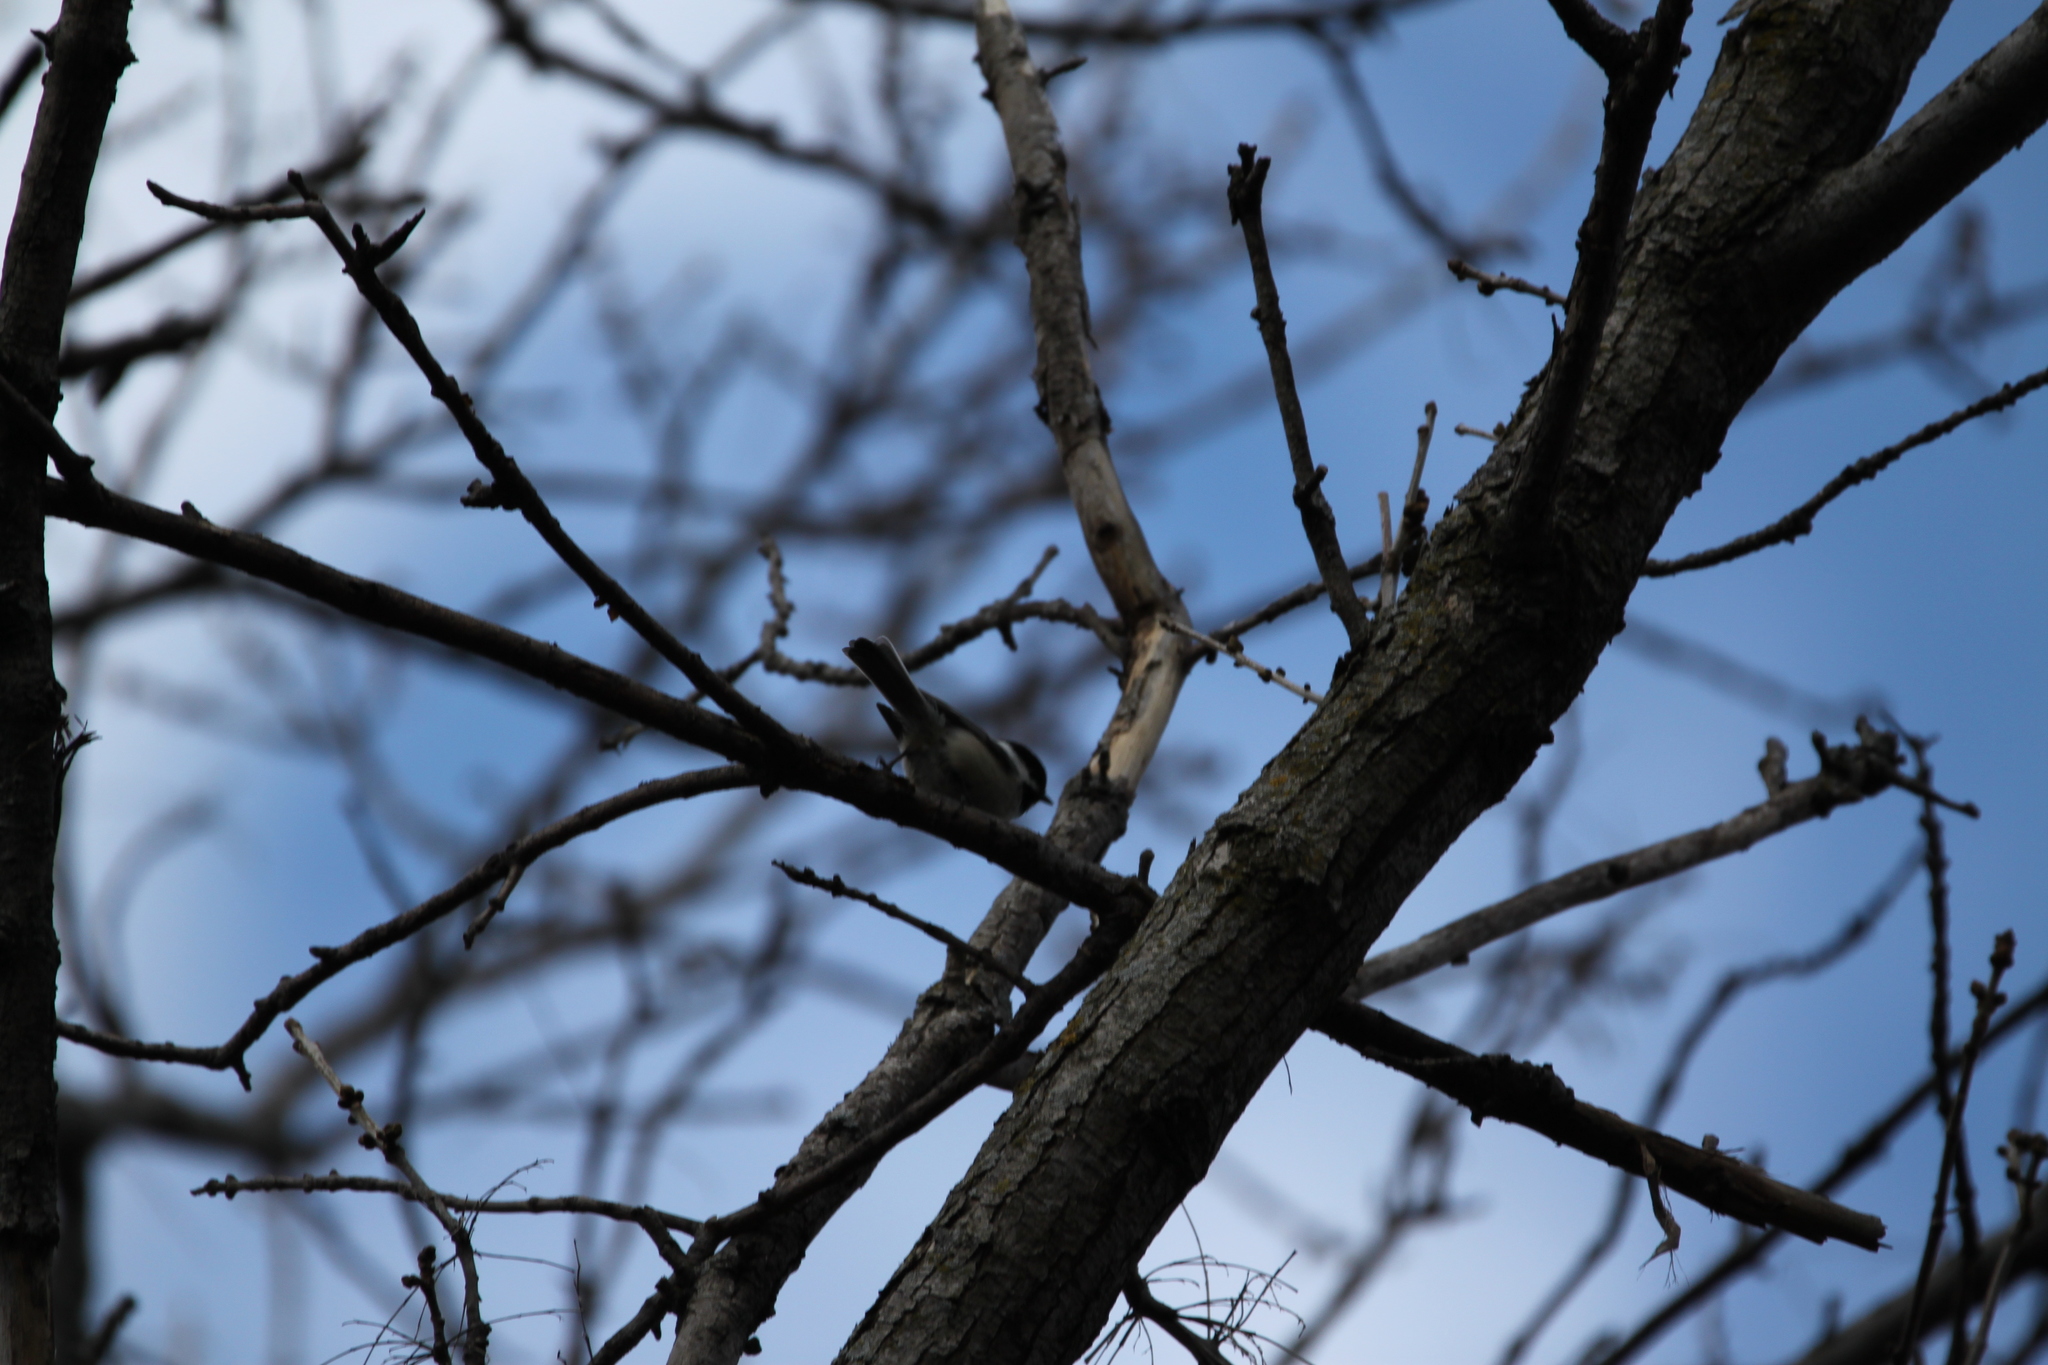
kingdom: Animalia
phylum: Chordata
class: Aves
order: Passeriformes
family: Paridae
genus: Poecile
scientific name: Poecile atricapillus
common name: Black-capped chickadee
